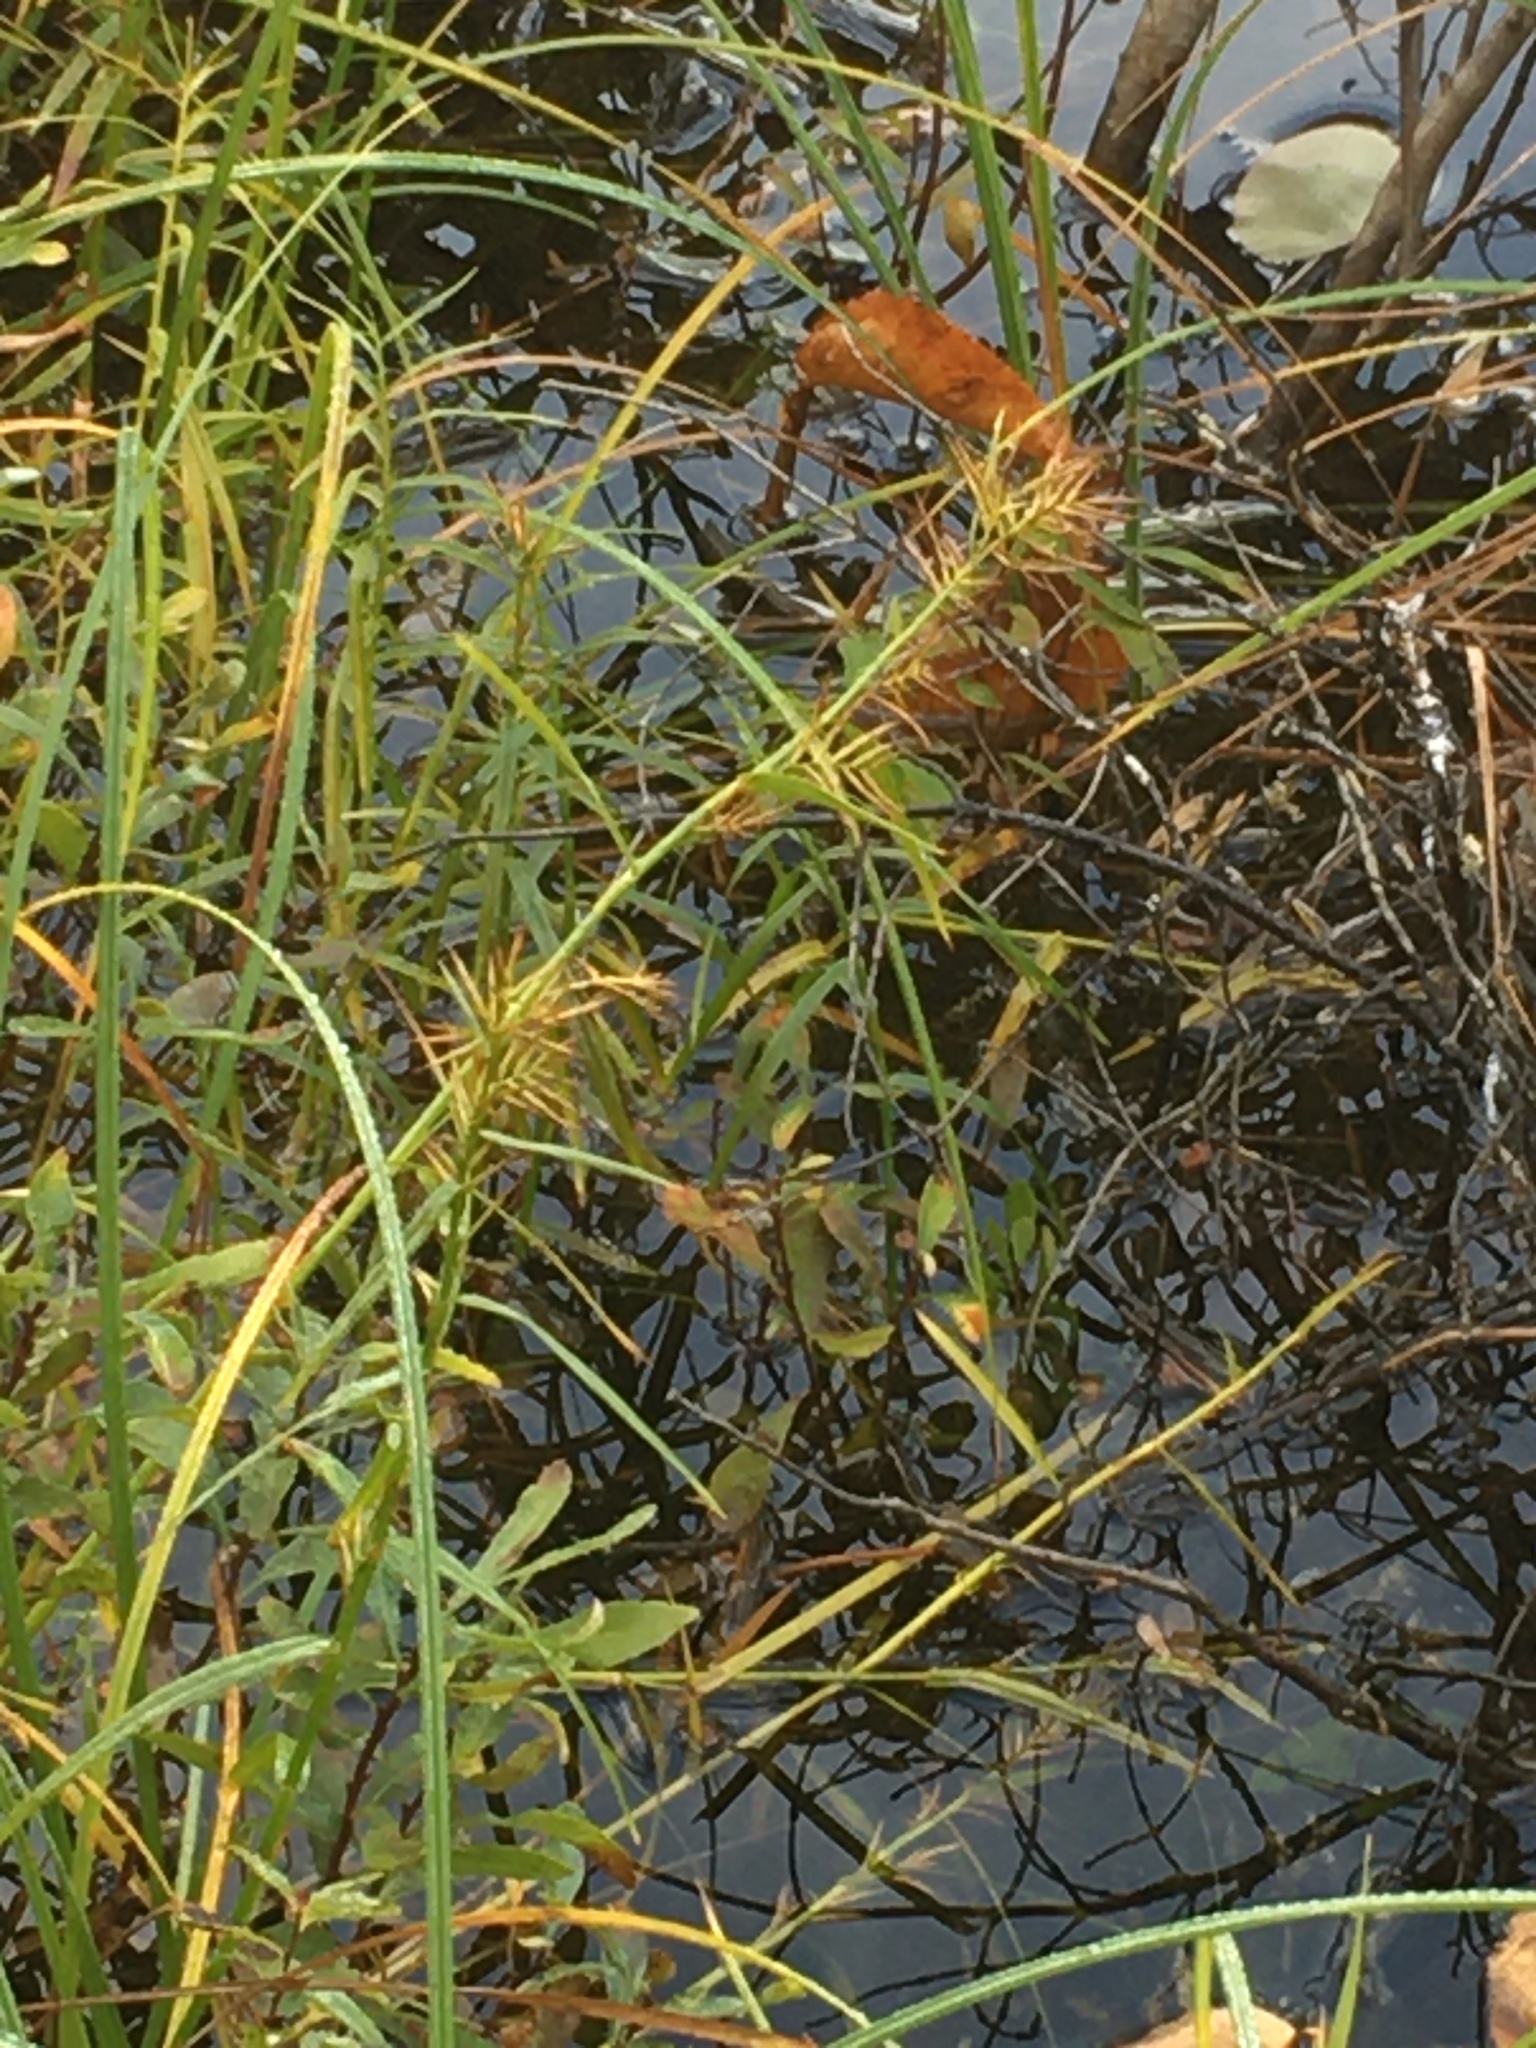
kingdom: Plantae
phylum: Tracheophyta
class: Liliopsida
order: Poales
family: Cyperaceae
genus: Dulichium
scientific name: Dulichium arundinaceum
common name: Three-way sedge
